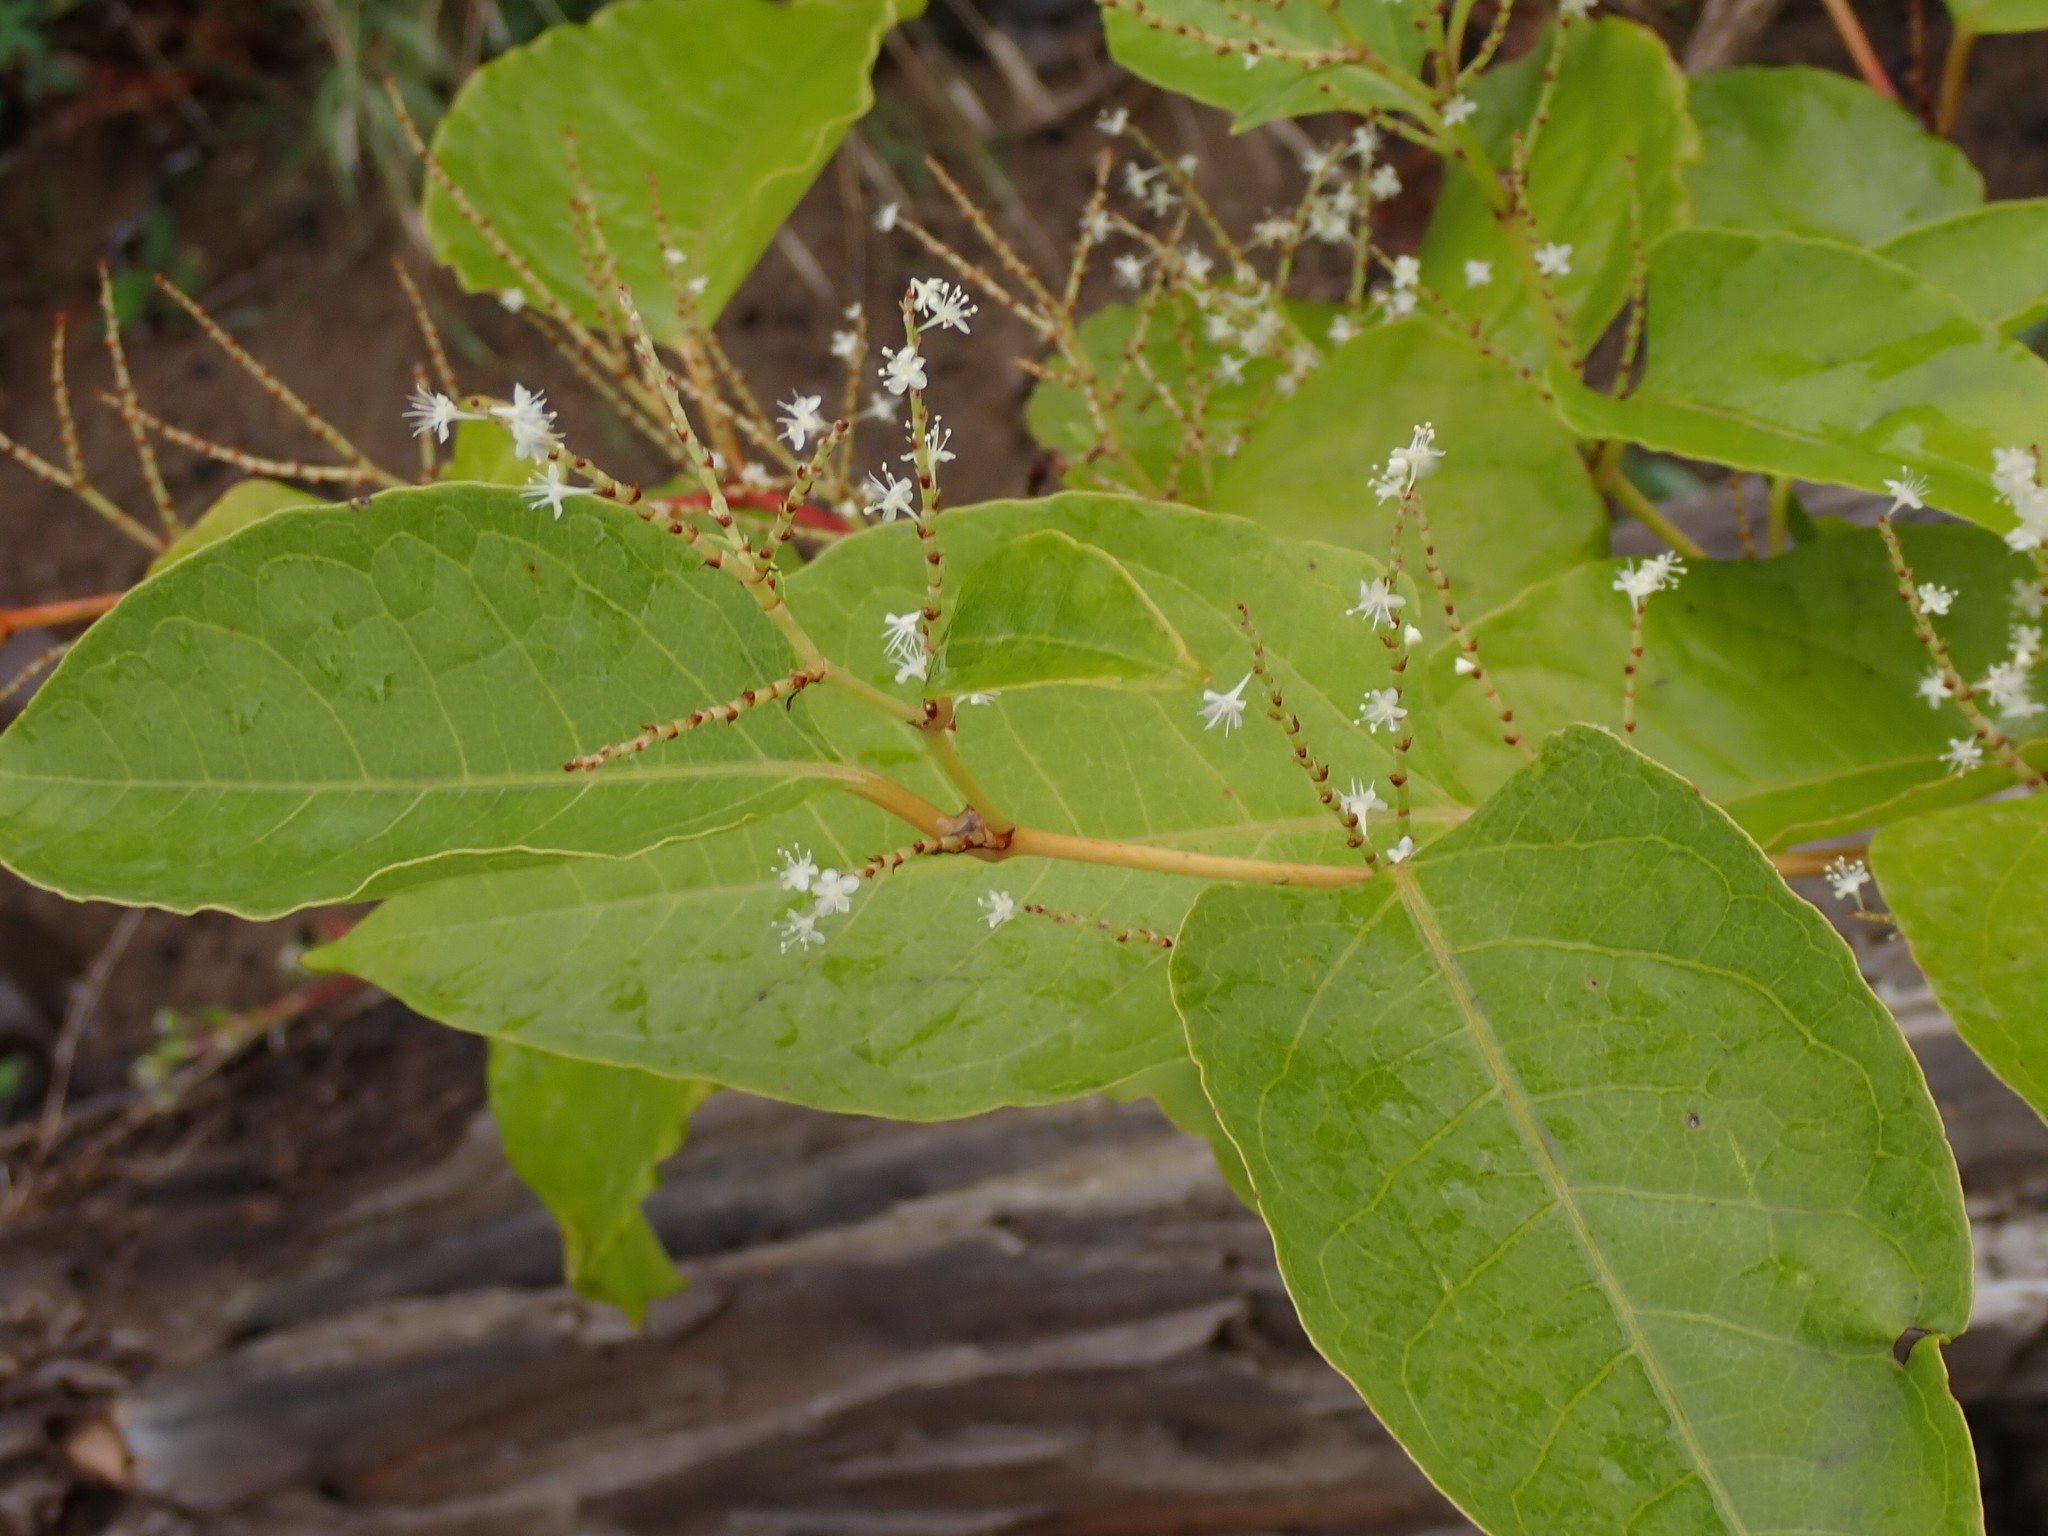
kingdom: Plantae
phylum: Tracheophyta
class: Magnoliopsida
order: Caryophyllales
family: Polygonaceae
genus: Reynoutria
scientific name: Reynoutria japonica
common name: Japanese knotweed
